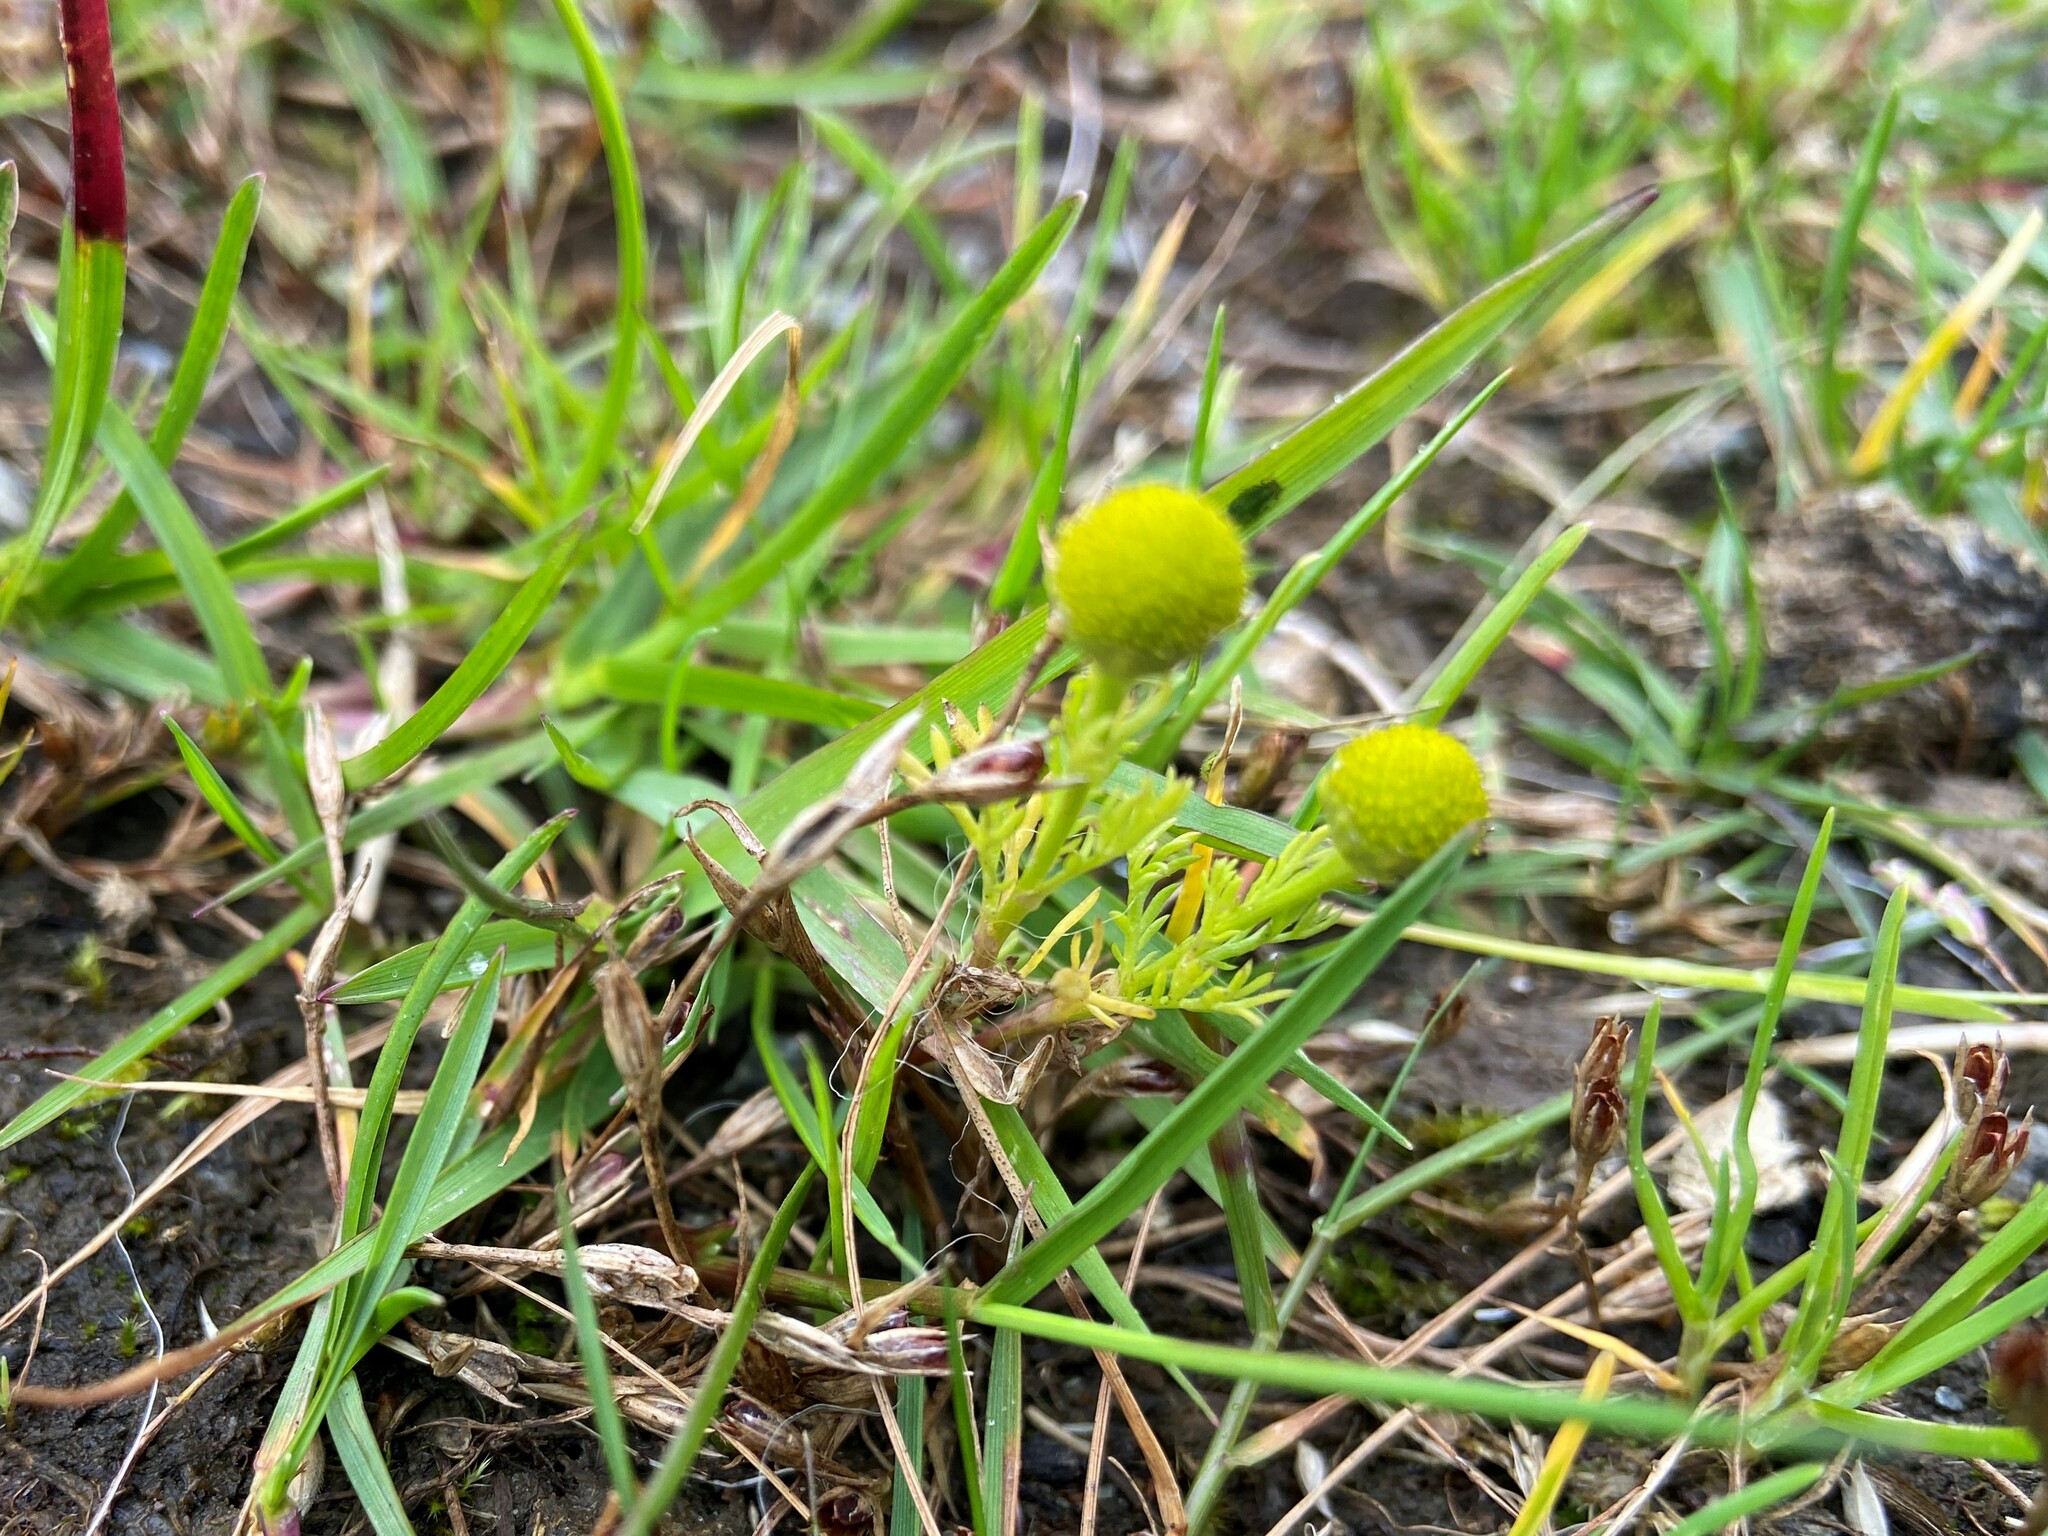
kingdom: Plantae
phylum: Tracheophyta
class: Magnoliopsida
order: Asterales
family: Asteraceae
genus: Matricaria
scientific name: Matricaria discoidea
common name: Disc mayweed
